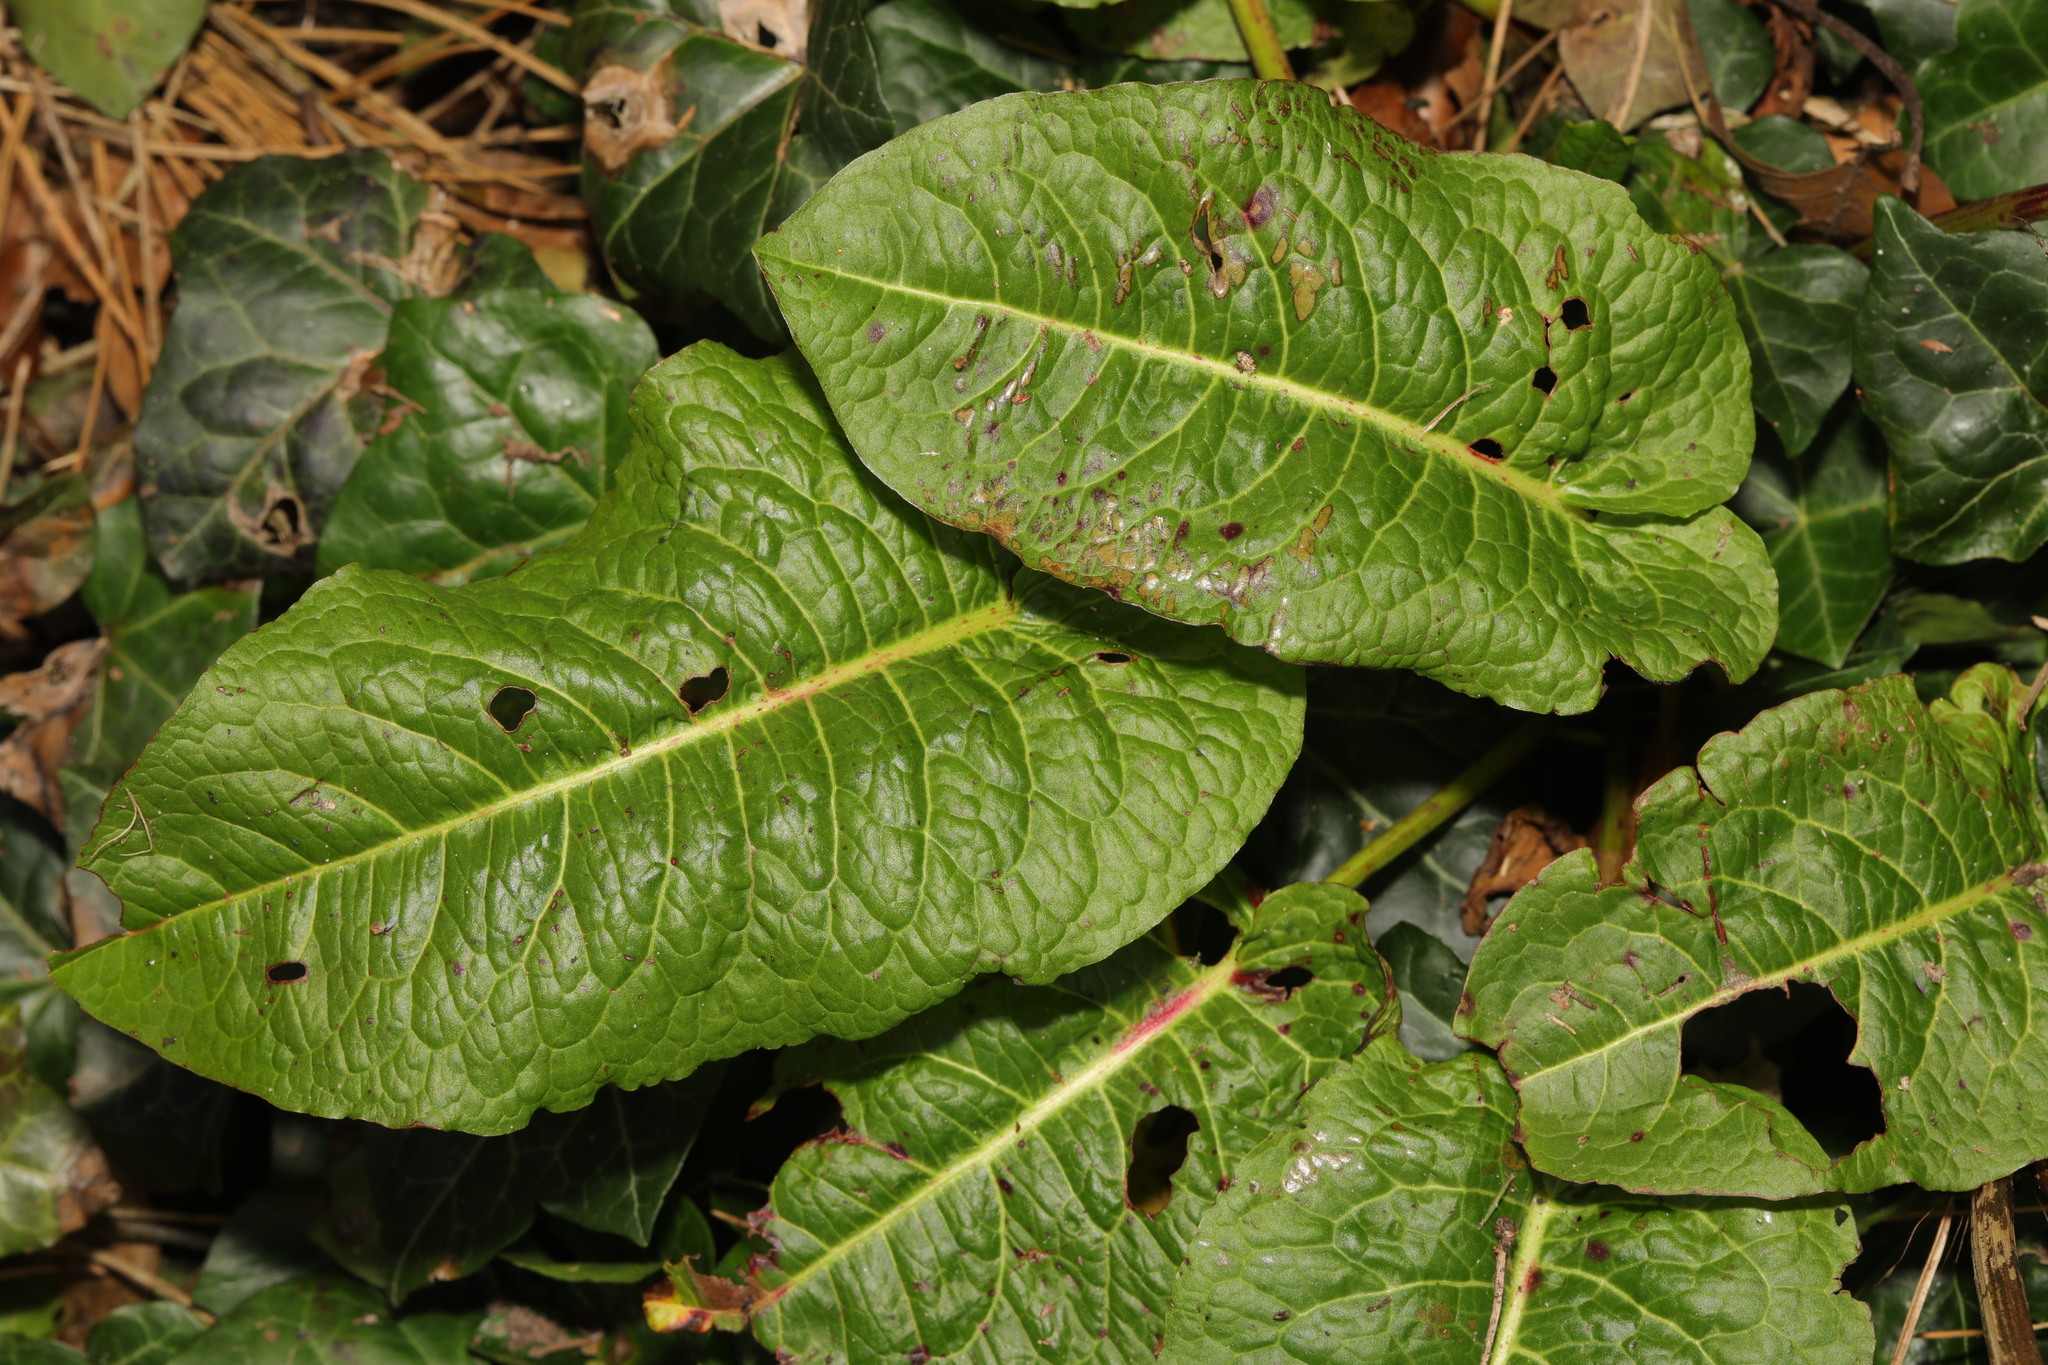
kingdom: Plantae
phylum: Tracheophyta
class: Magnoliopsida
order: Caryophyllales
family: Polygonaceae
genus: Rumex
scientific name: Rumex obtusifolius
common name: Bitter dock
